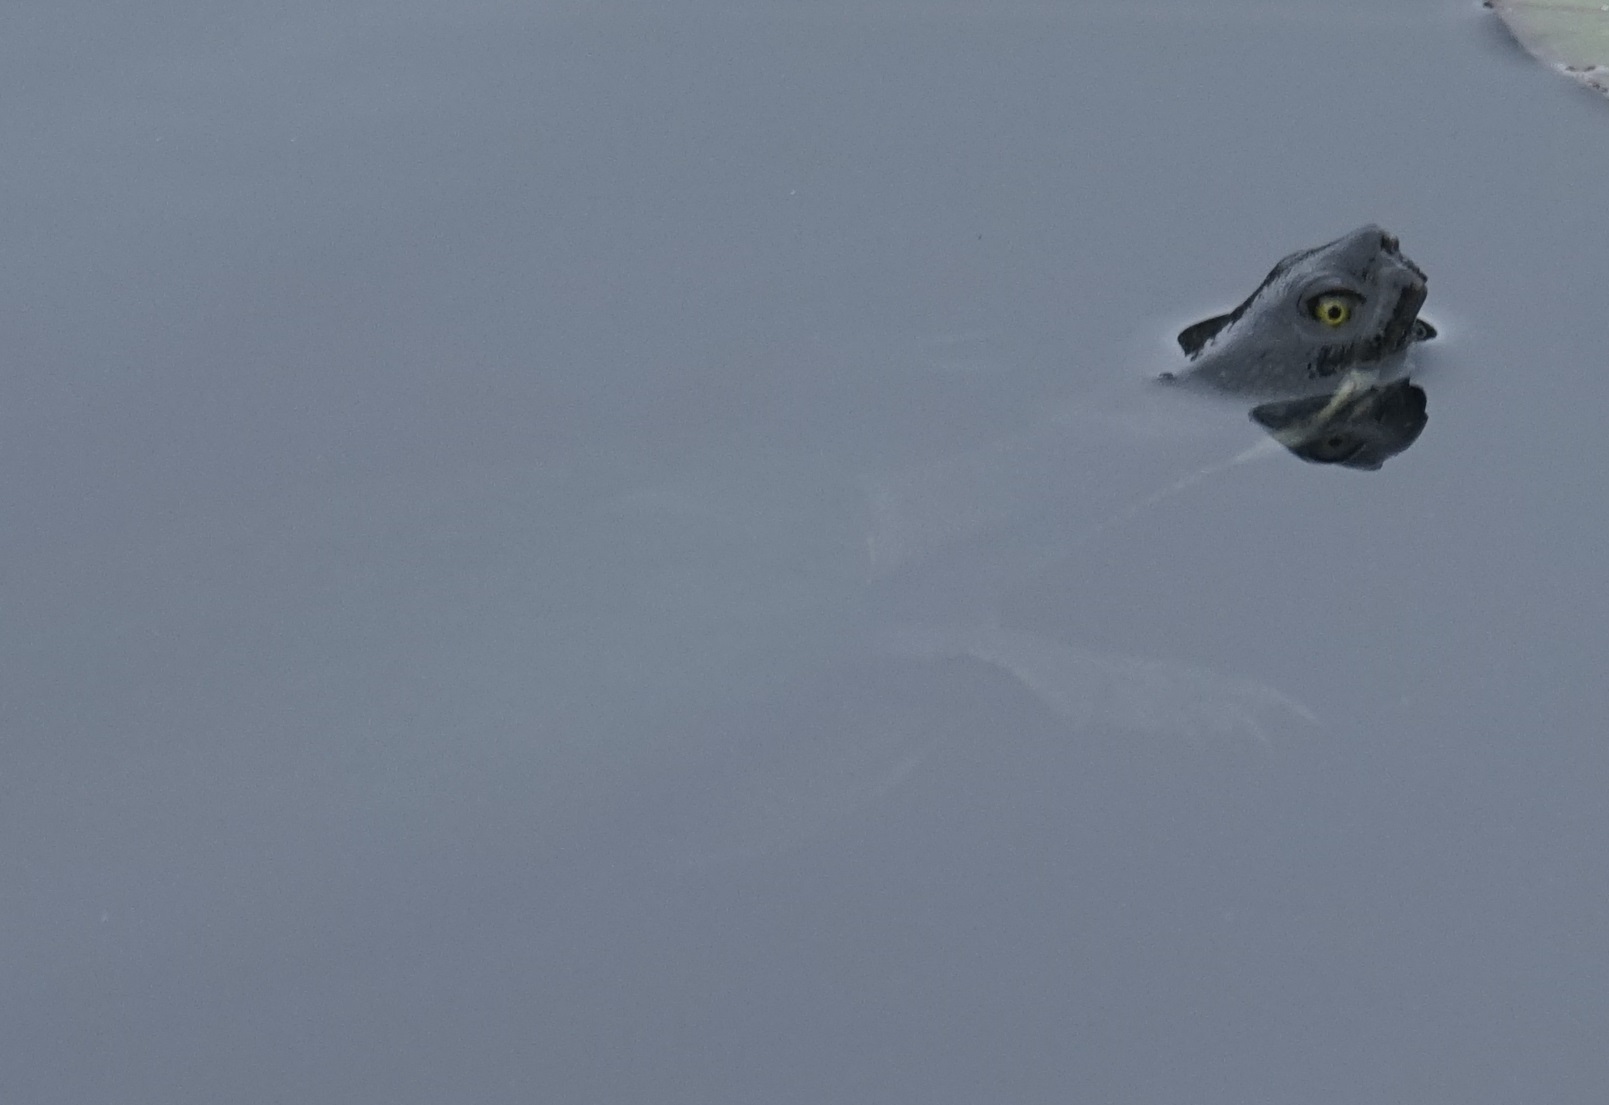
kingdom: Animalia
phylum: Chordata
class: Testudines
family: Chelidae
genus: Emydura
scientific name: Emydura macquarii
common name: Murray river turtle
